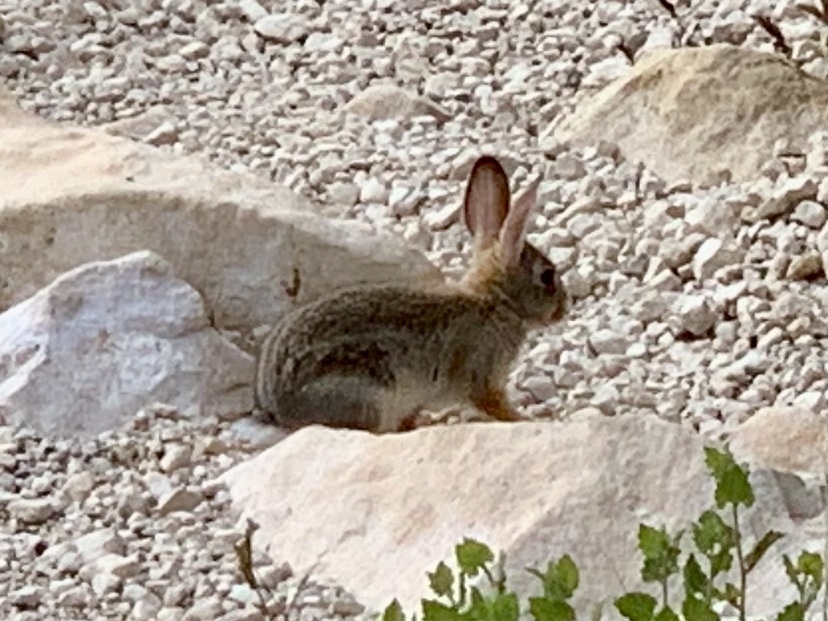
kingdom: Animalia
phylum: Chordata
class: Mammalia
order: Lagomorpha
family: Leporidae
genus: Sylvilagus
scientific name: Sylvilagus audubonii
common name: Desert cottontail
